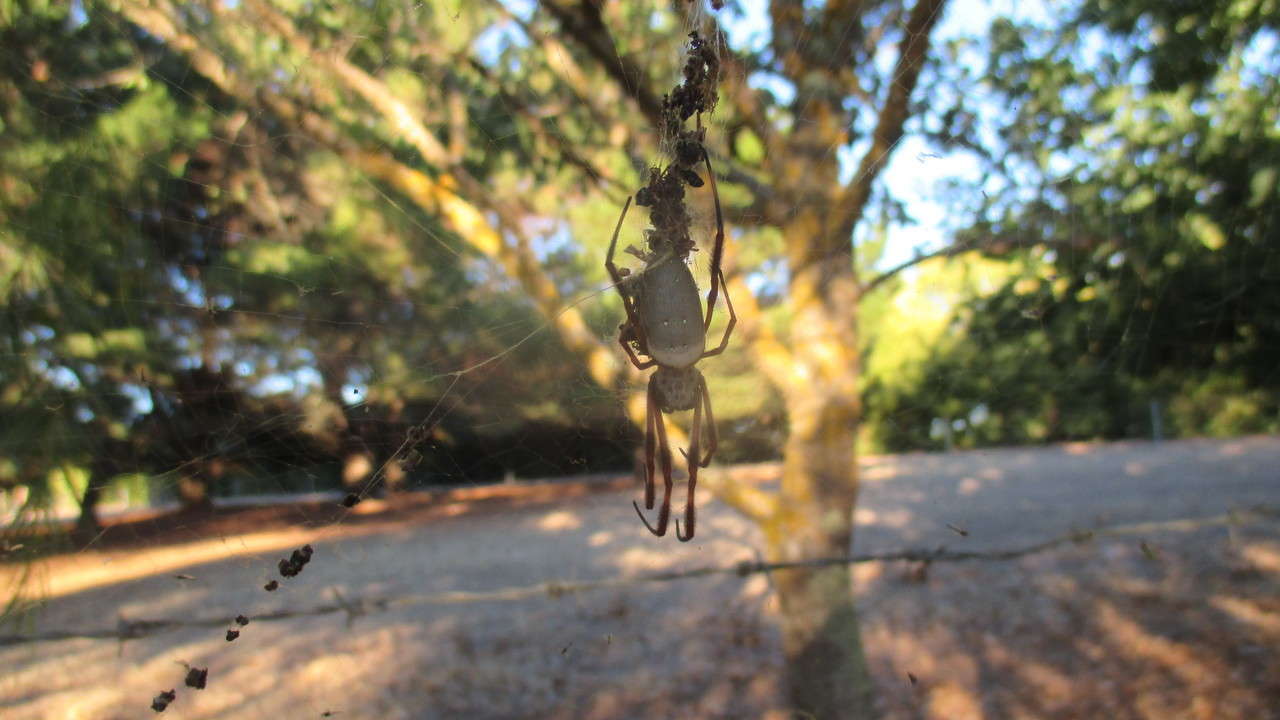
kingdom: Animalia
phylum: Arthropoda
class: Arachnida
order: Araneae
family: Araneidae
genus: Trichonephila
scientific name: Trichonephila edulis
